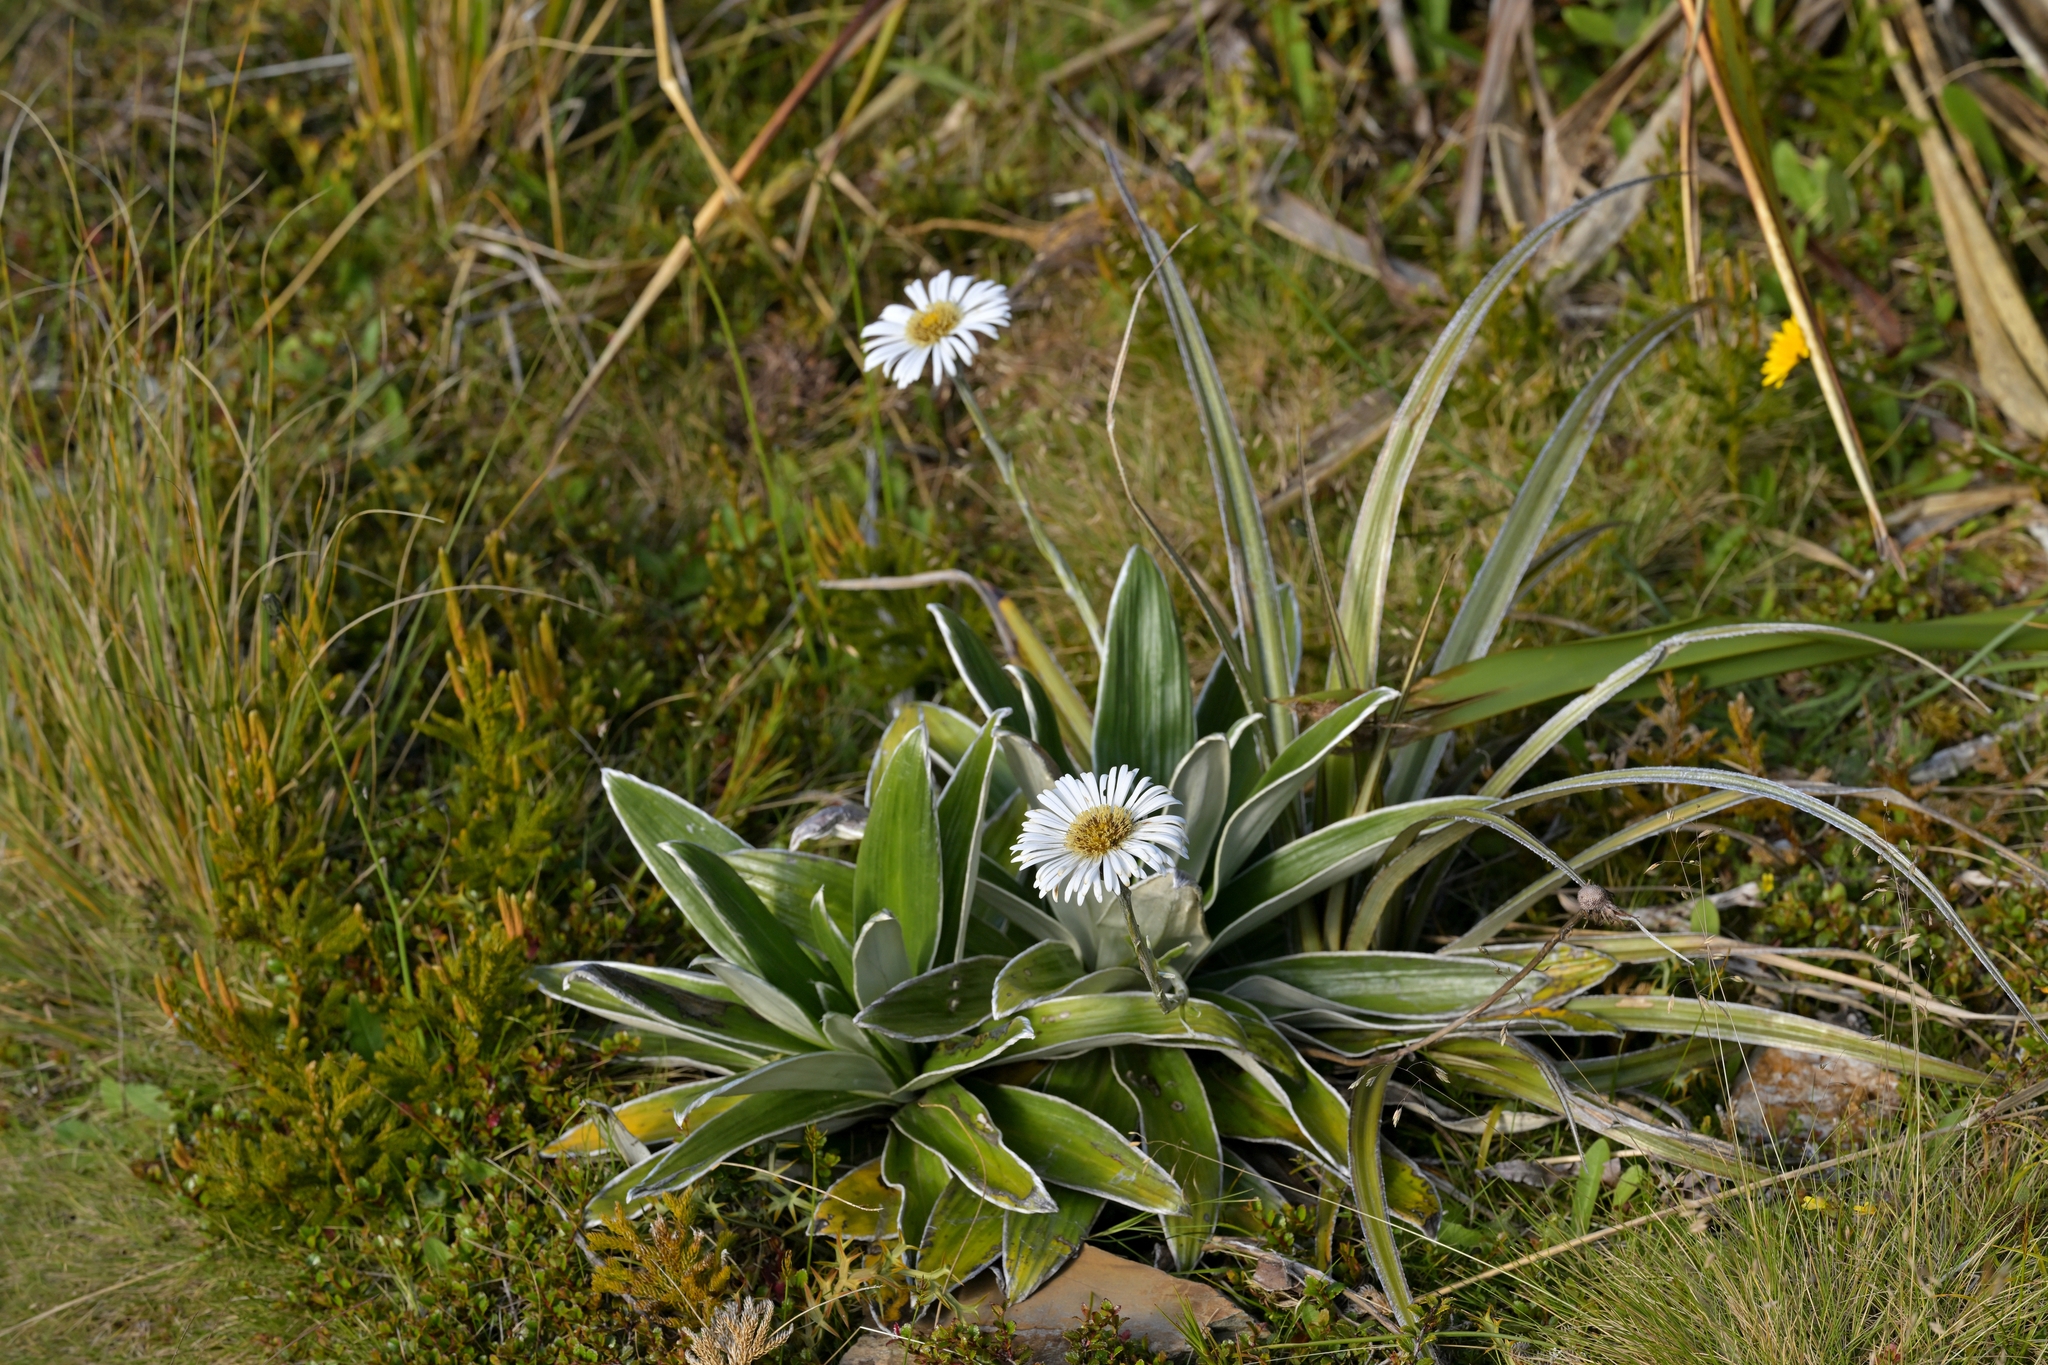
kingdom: Plantae
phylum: Tracheophyta
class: Magnoliopsida
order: Asterales
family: Asteraceae
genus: Celmisia
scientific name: Celmisia semicordata
